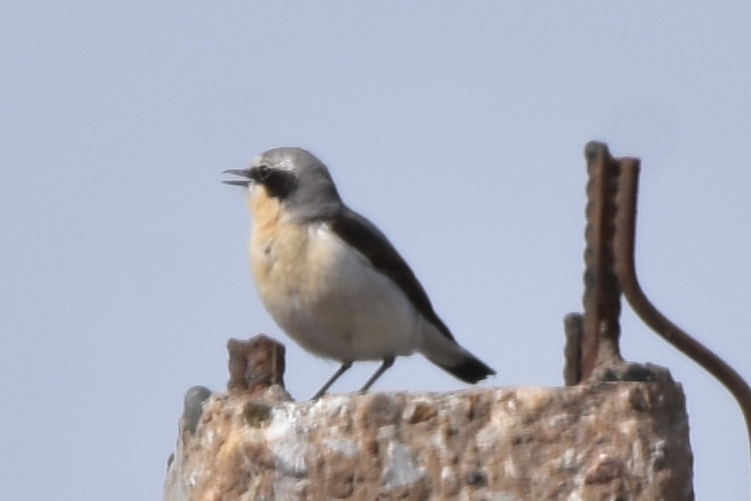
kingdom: Animalia
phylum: Chordata
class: Aves
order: Passeriformes
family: Muscicapidae
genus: Oenanthe
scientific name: Oenanthe oenanthe
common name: Northern wheatear
